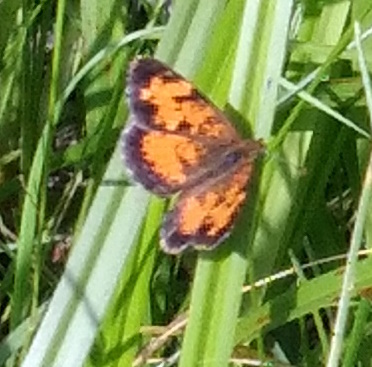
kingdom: Animalia
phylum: Arthropoda
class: Insecta
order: Lepidoptera
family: Nymphalidae
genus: Phyciodes
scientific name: Phyciodes tharos
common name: Pearl crescent
